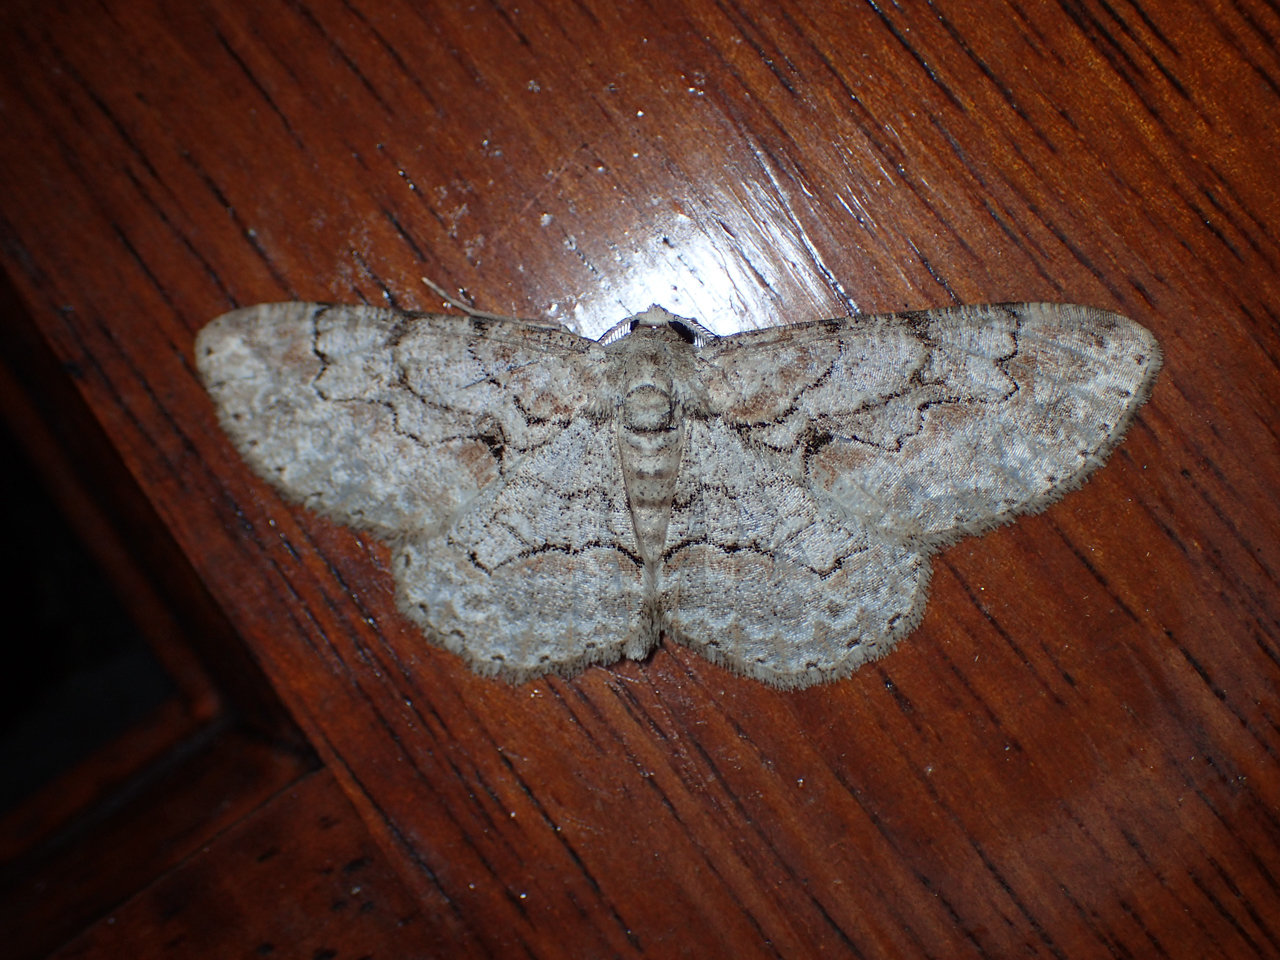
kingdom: Animalia
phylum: Arthropoda
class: Insecta
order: Lepidoptera
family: Geometridae
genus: Iridopsis
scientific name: Iridopsis defectaria
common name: Brown-shaded gray
